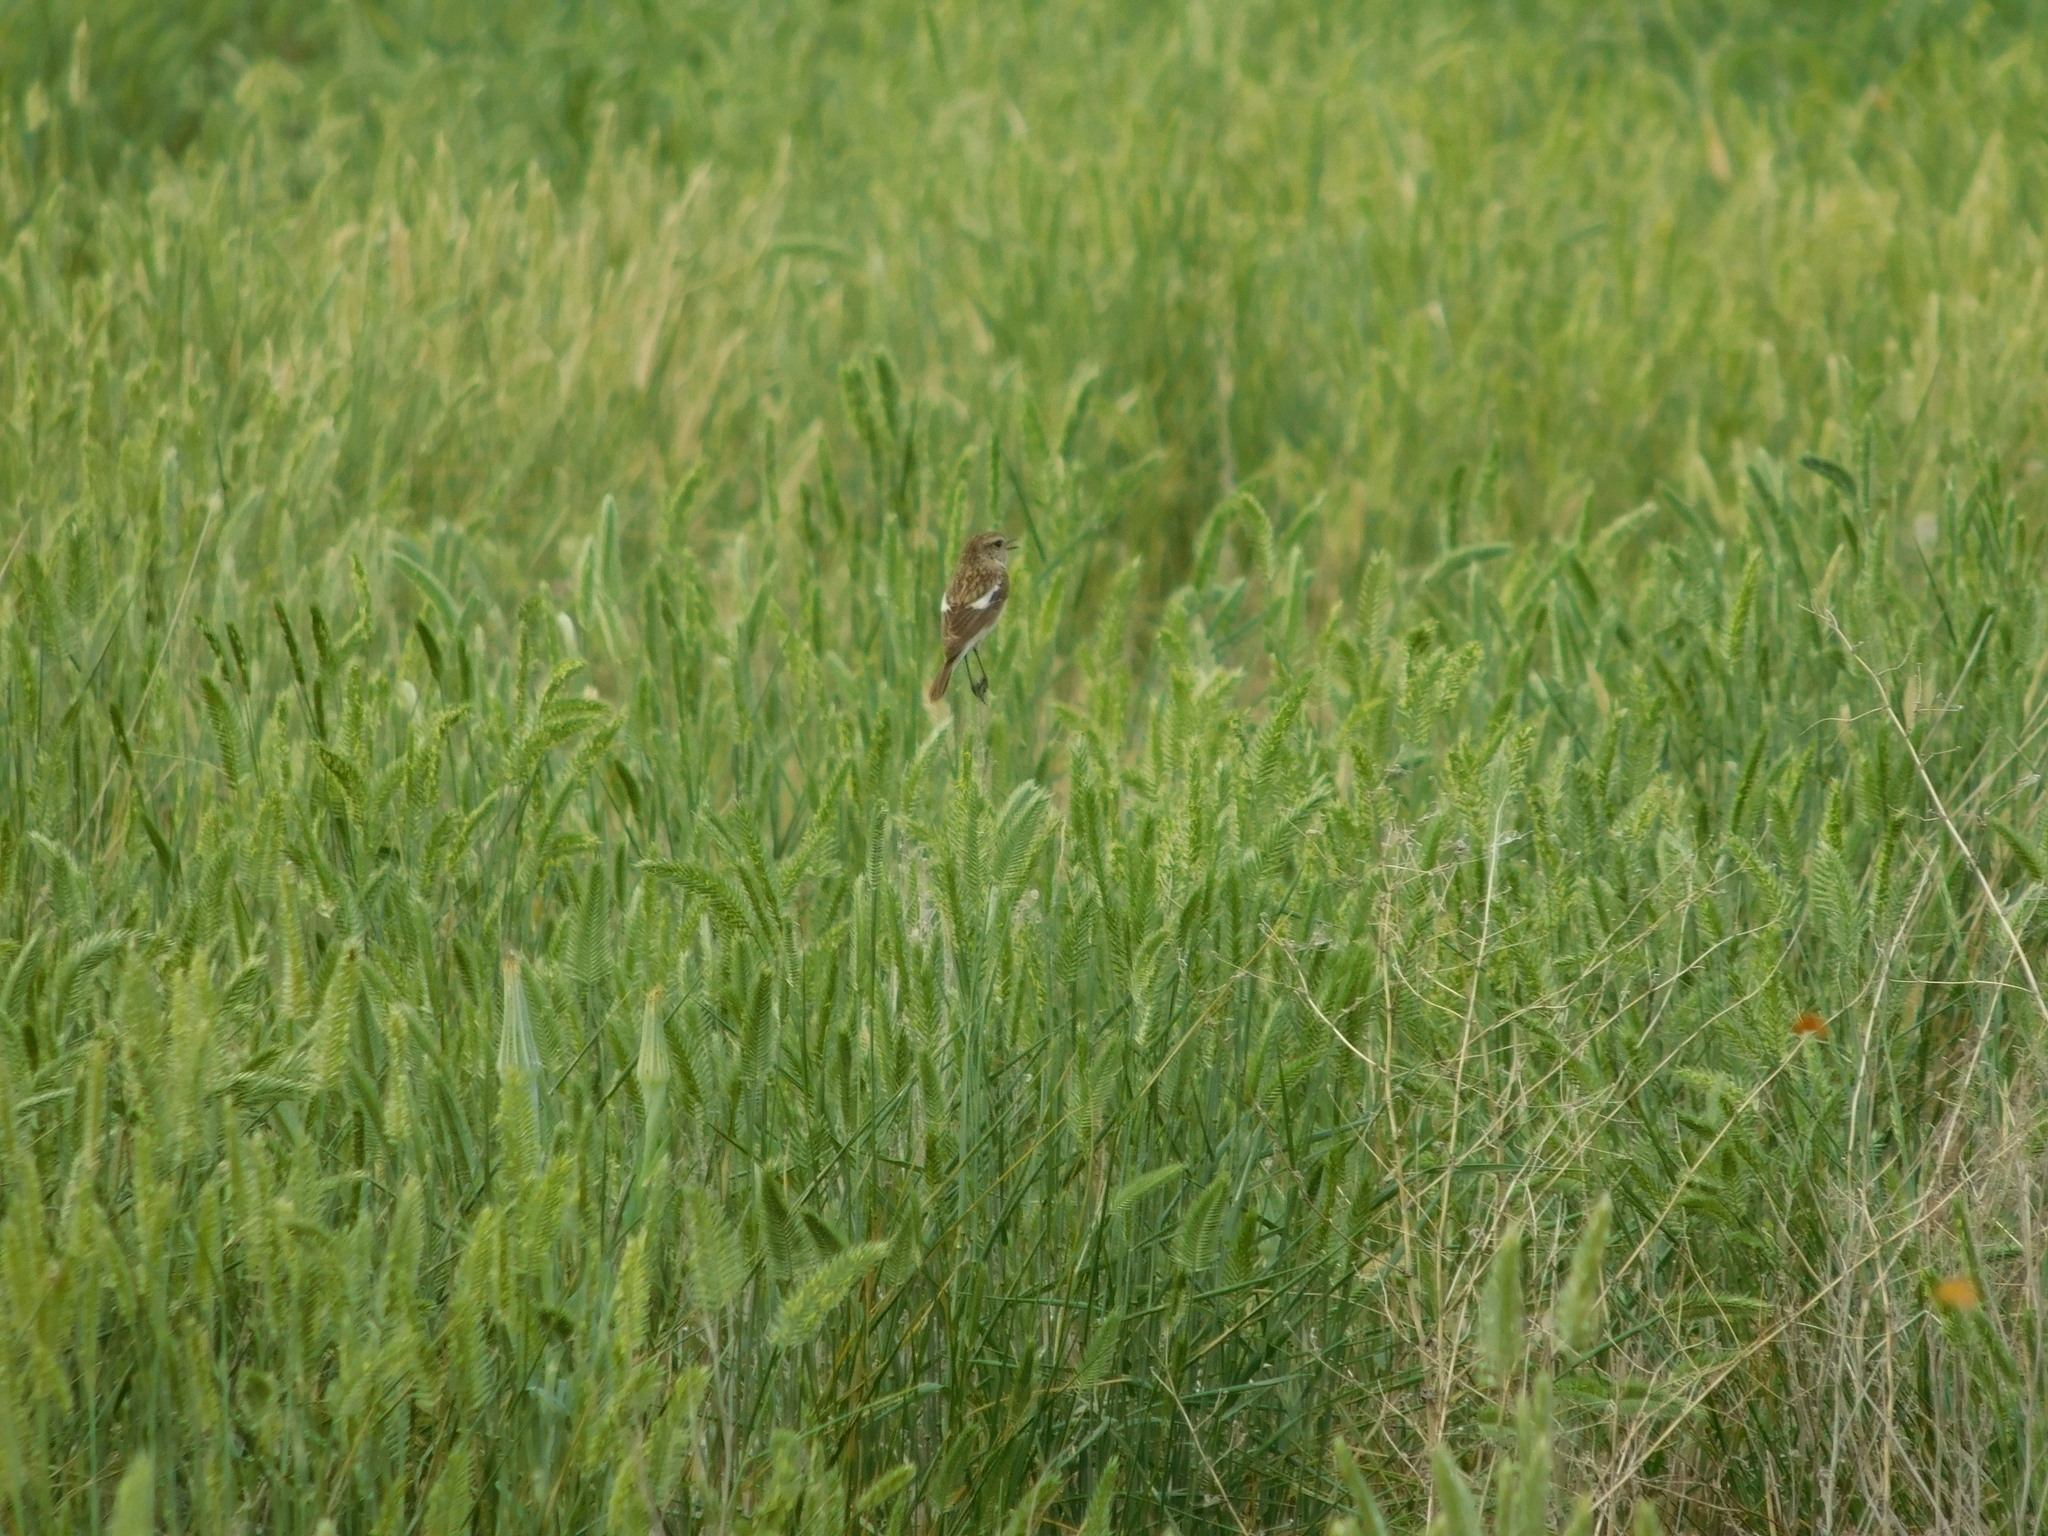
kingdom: Animalia
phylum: Chordata
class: Aves
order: Passeriformes
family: Muscicapidae
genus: Saxicola
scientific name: Saxicola maurus
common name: Siberian stonechat
